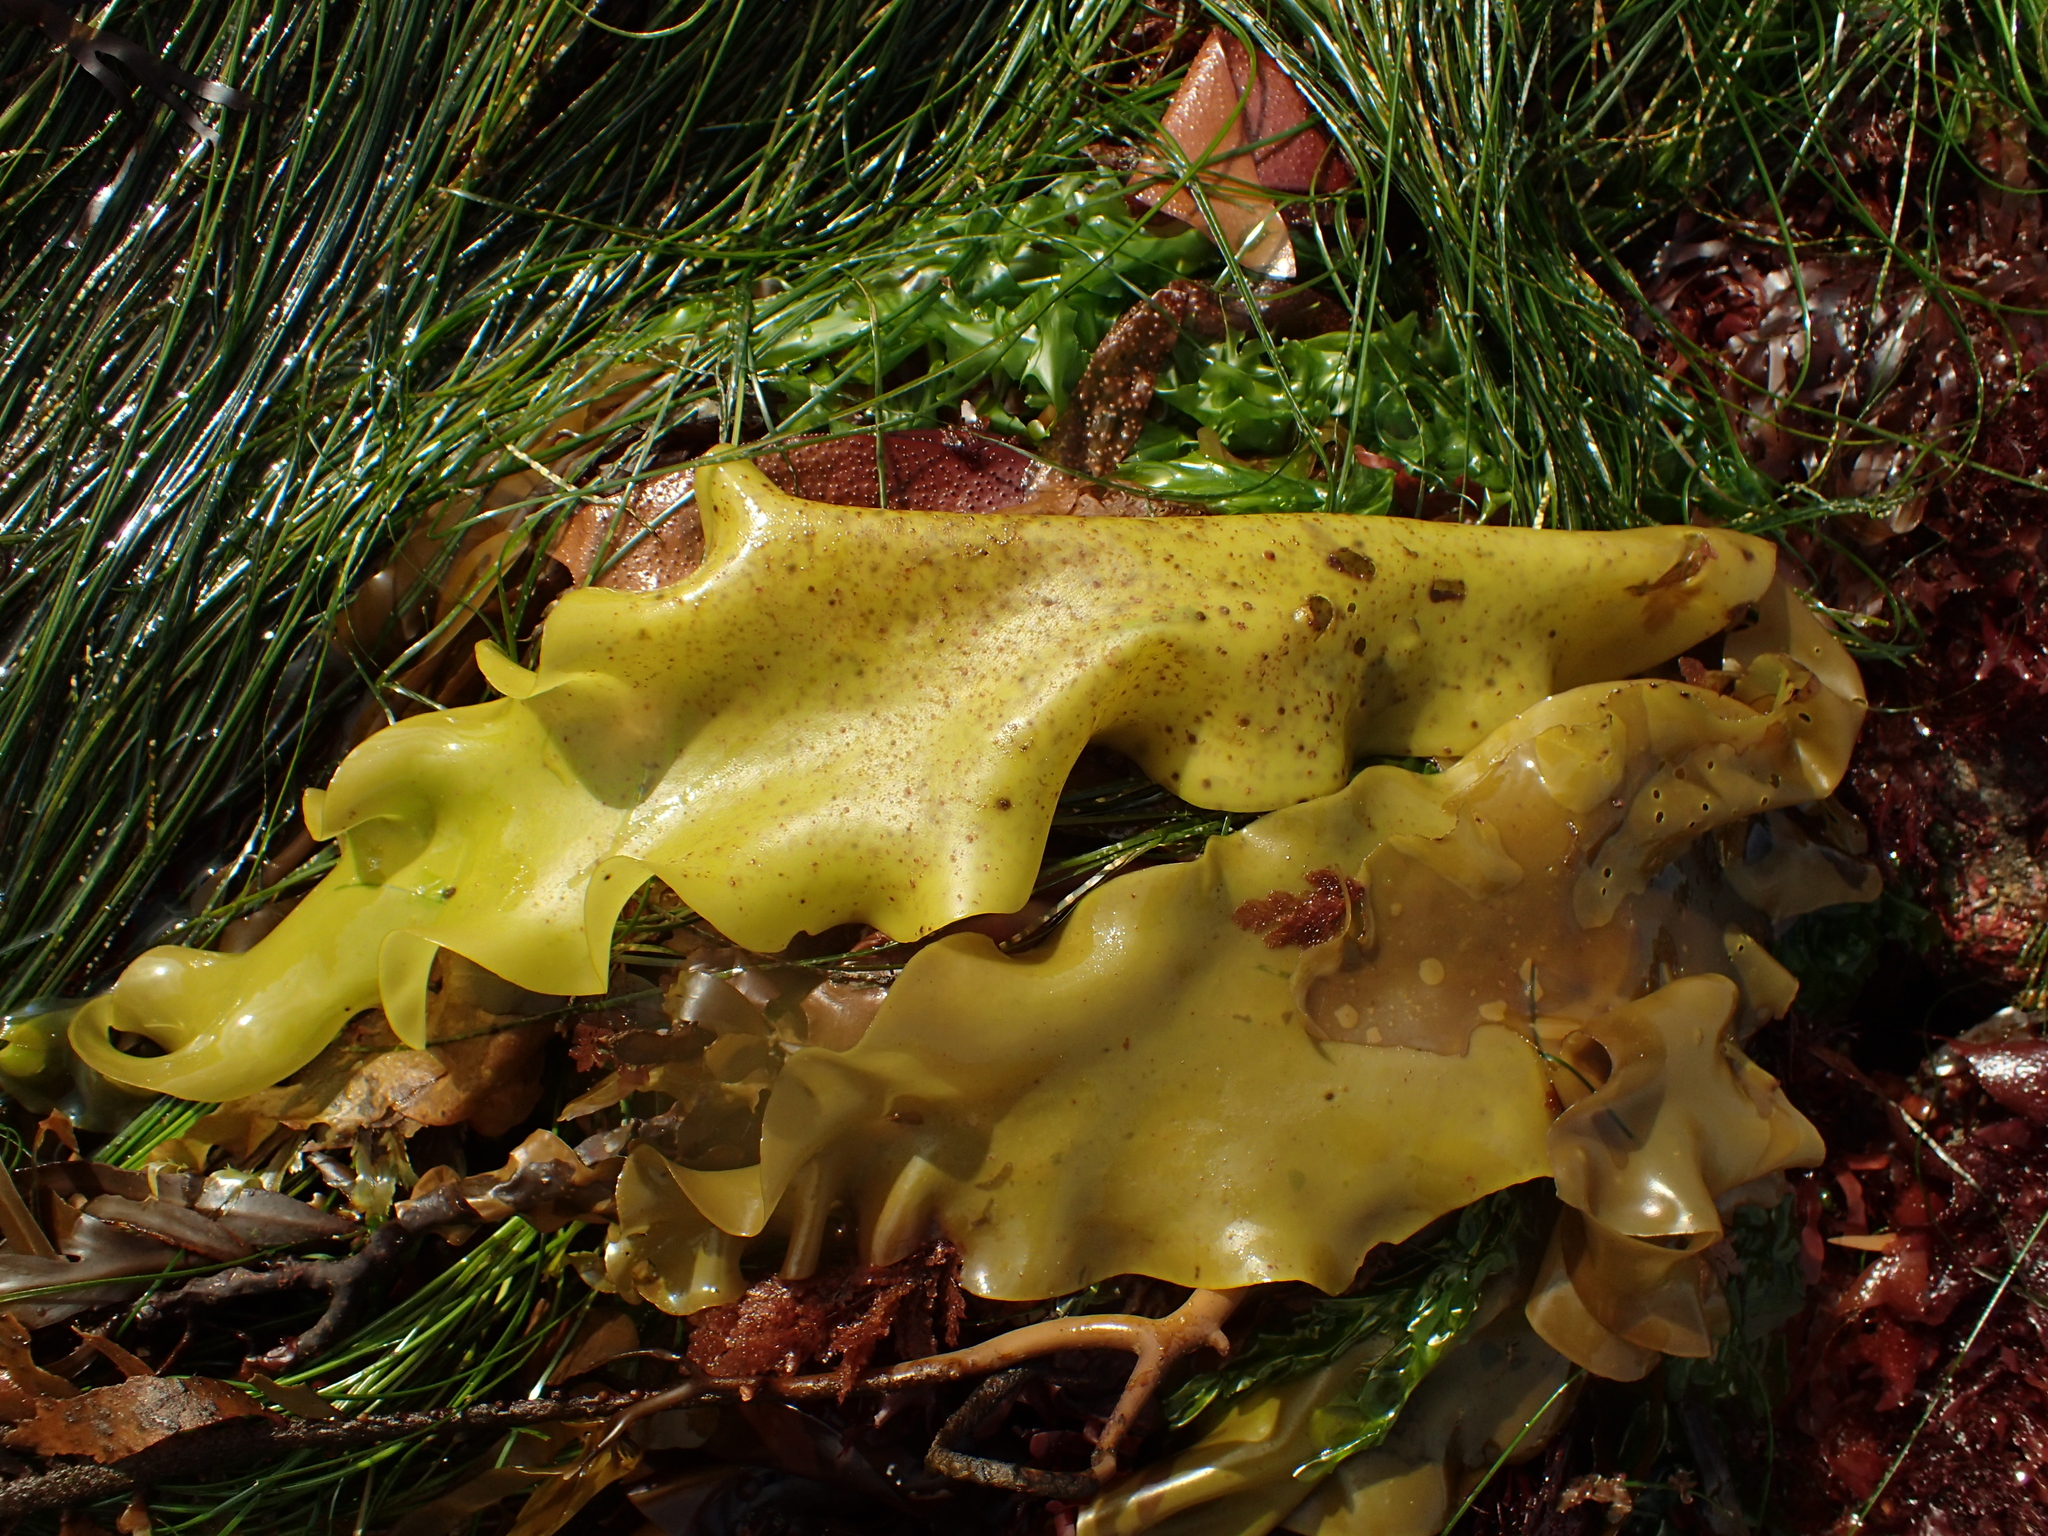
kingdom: Plantae
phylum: Rhodophyta
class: Florideophyceae
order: Gigartinales
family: Gigartinaceae
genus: Mazzaella
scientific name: Mazzaella splendens
